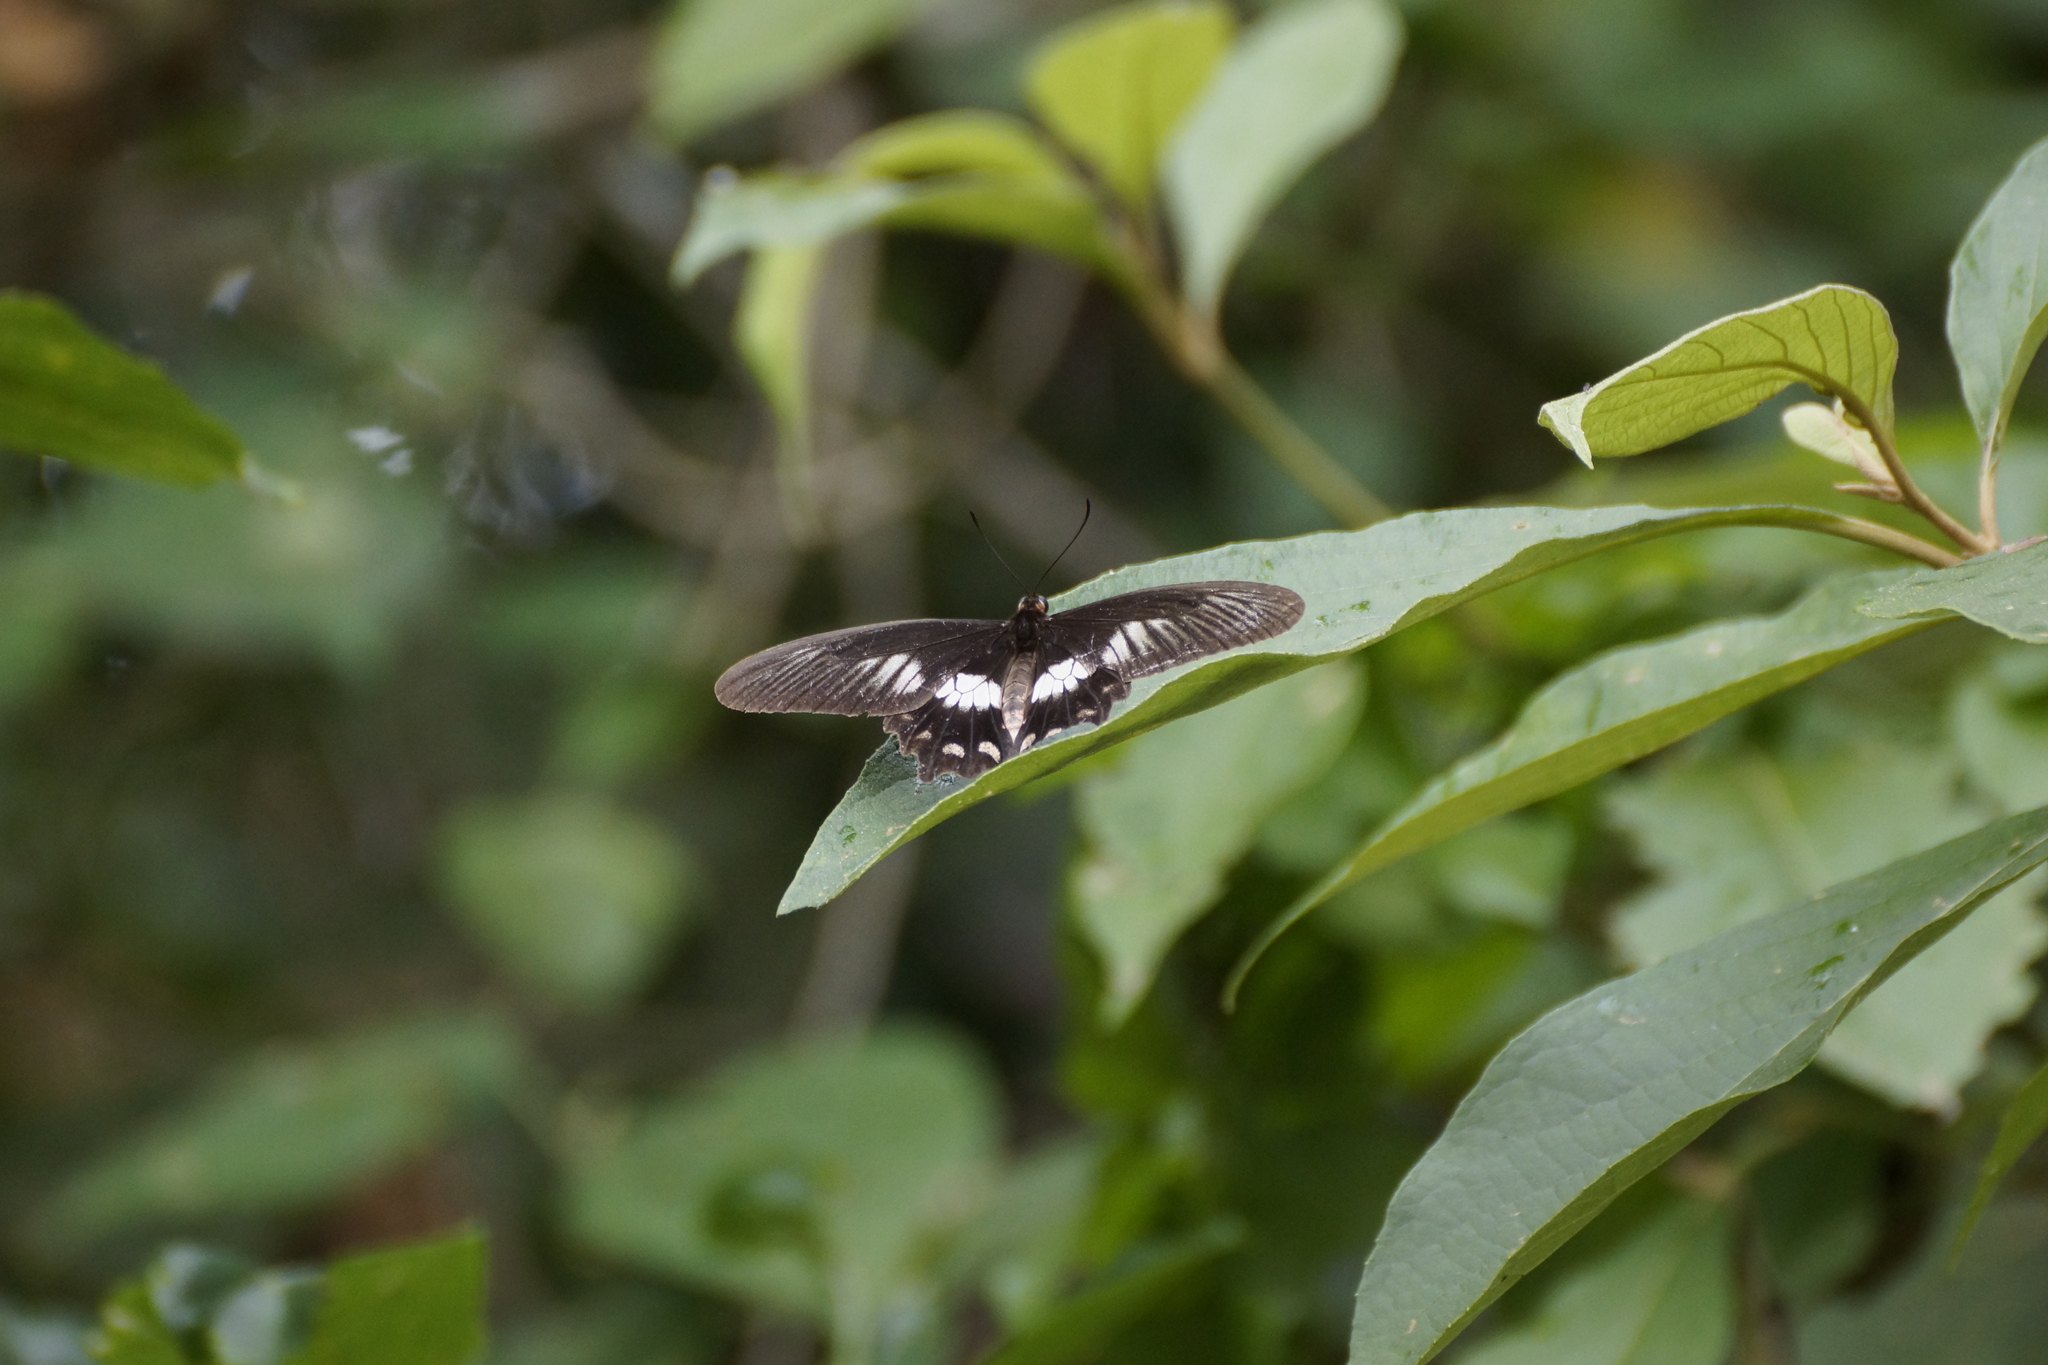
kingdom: Animalia
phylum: Arthropoda
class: Insecta
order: Lepidoptera
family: Papilionidae
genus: Pachliopta
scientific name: Pachliopta polydorus
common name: Red-bodied swallowtail
